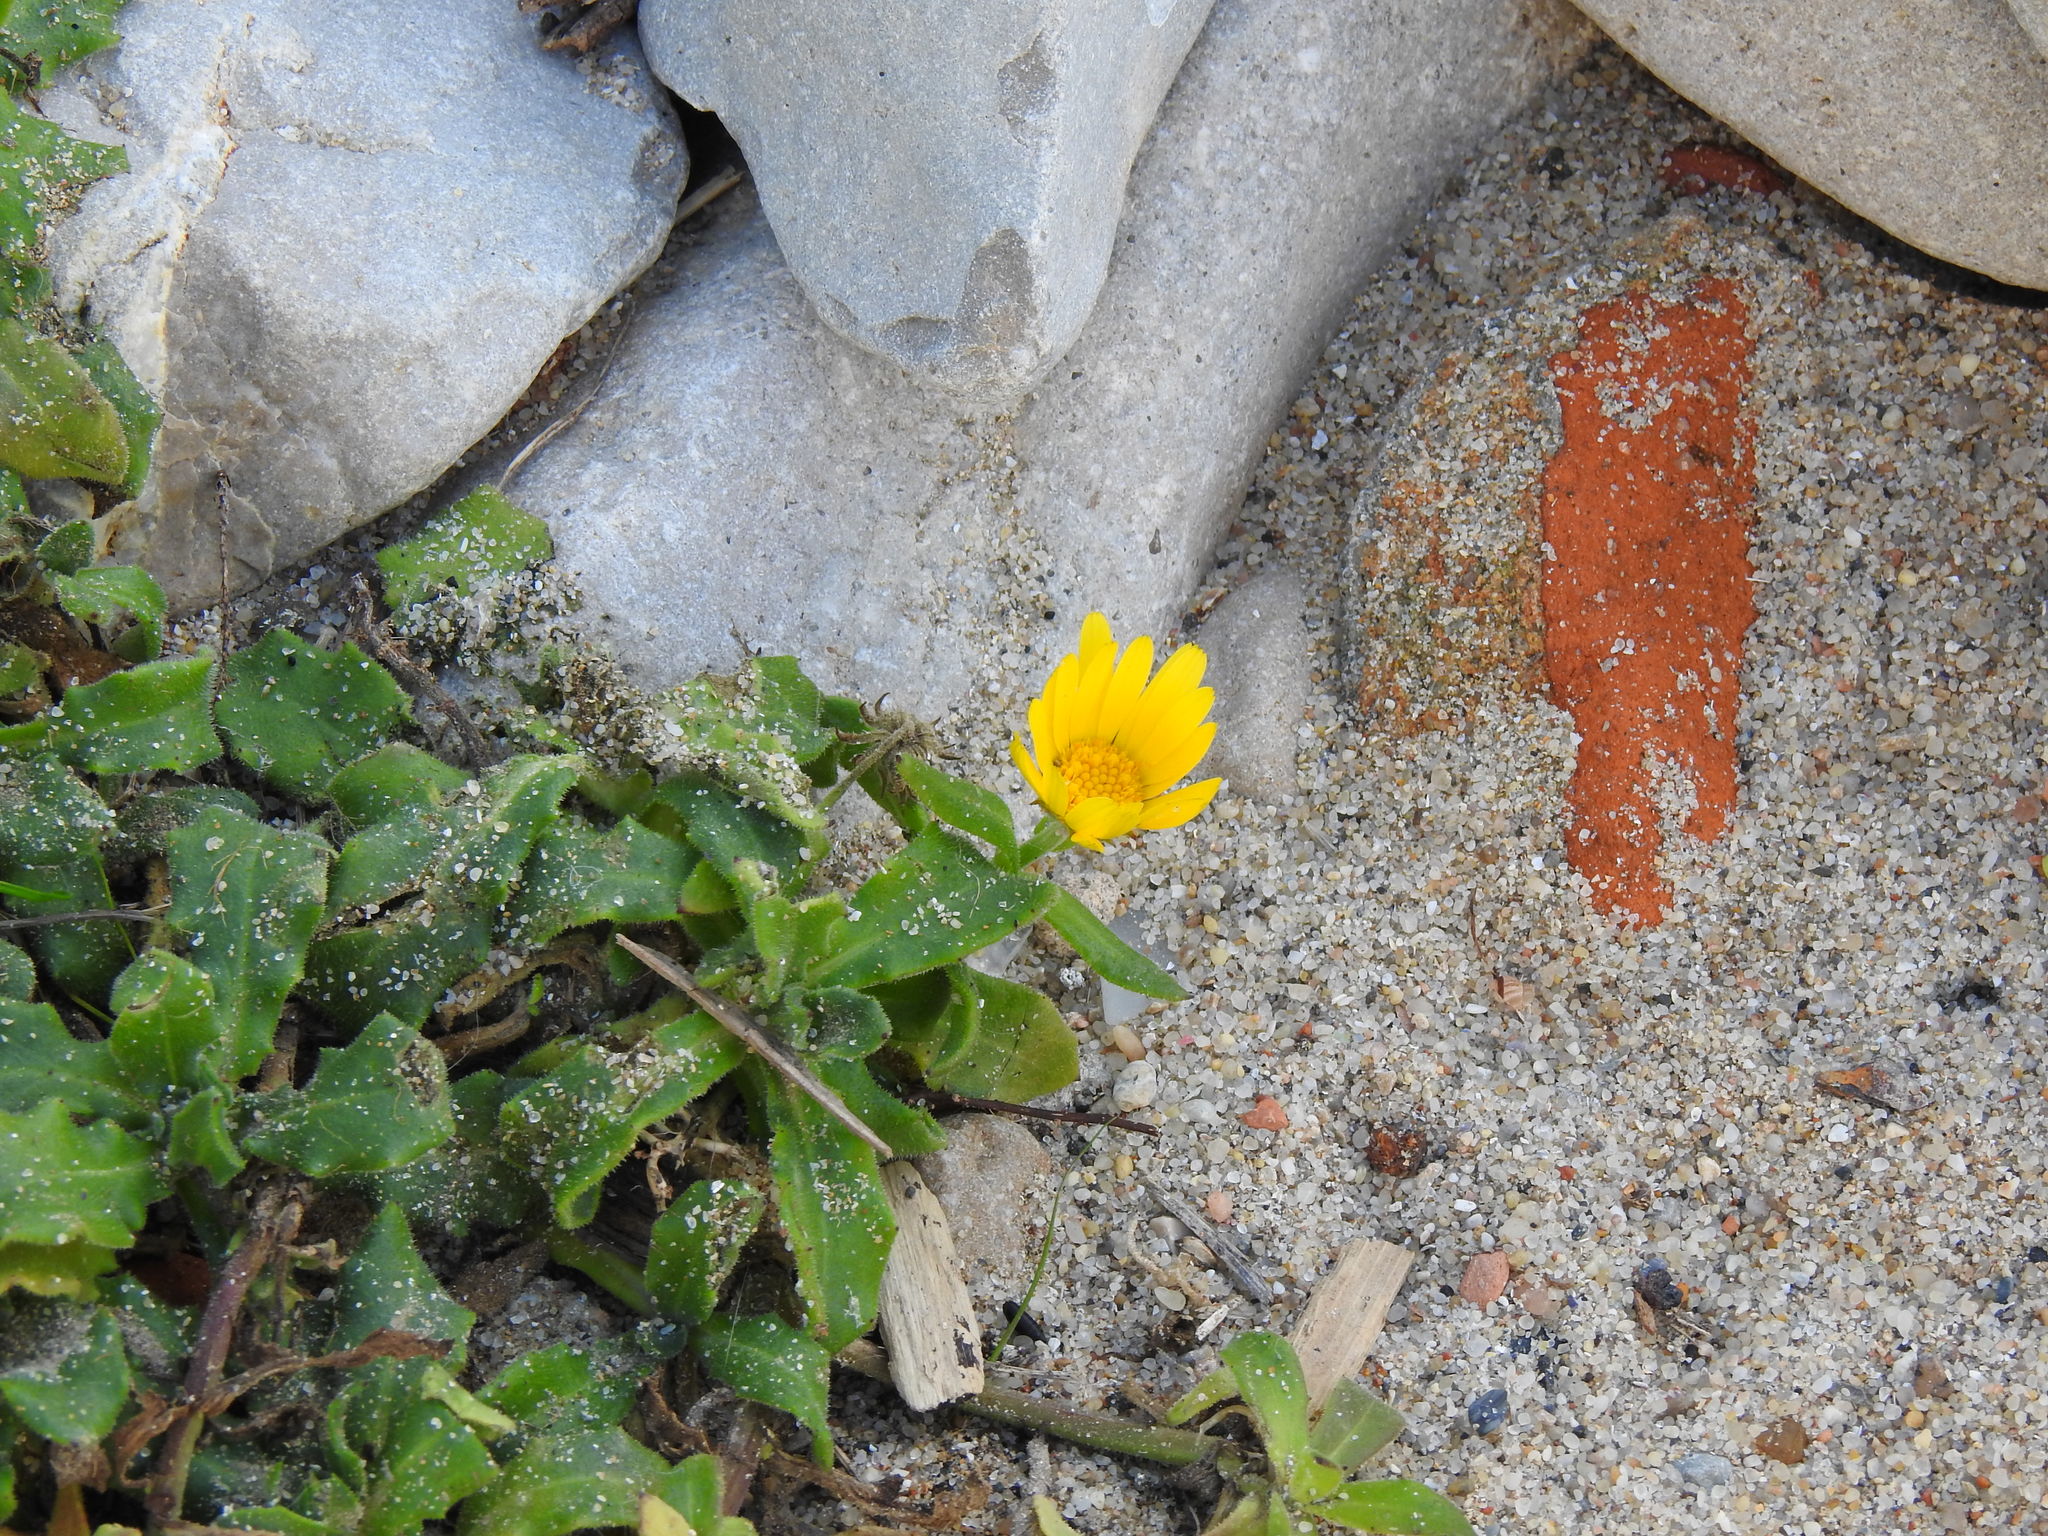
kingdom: Plantae
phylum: Tracheophyta
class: Magnoliopsida
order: Asterales
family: Asteraceae
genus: Calendula
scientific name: Calendula suffruticosa
